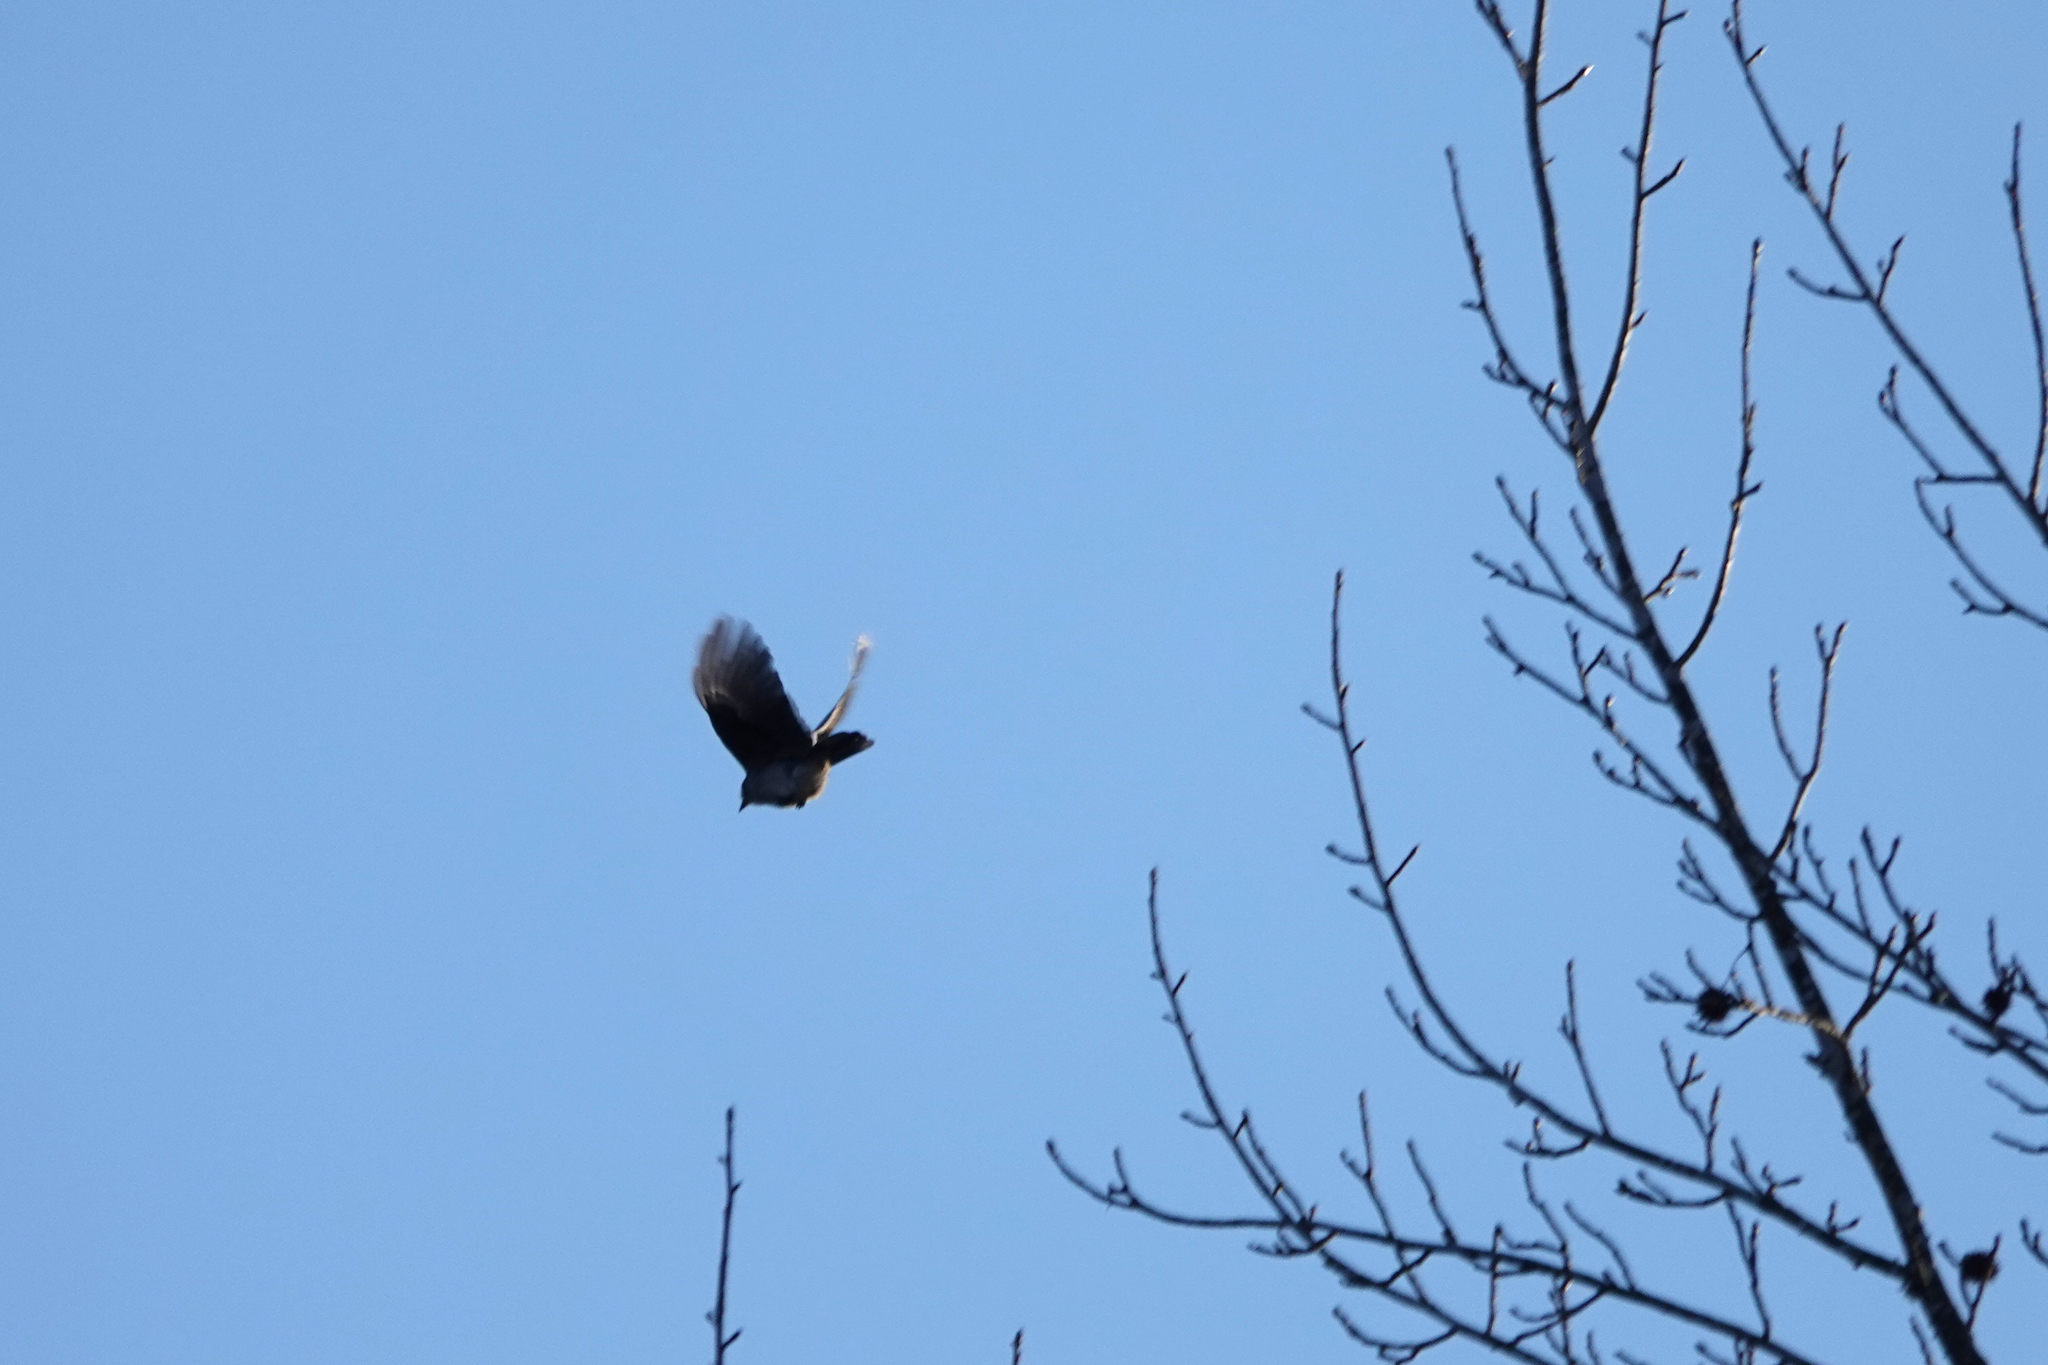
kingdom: Animalia
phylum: Chordata
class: Aves
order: Passeriformes
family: Corvidae
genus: Cyanocitta
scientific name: Cyanocitta cristata
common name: Blue jay
